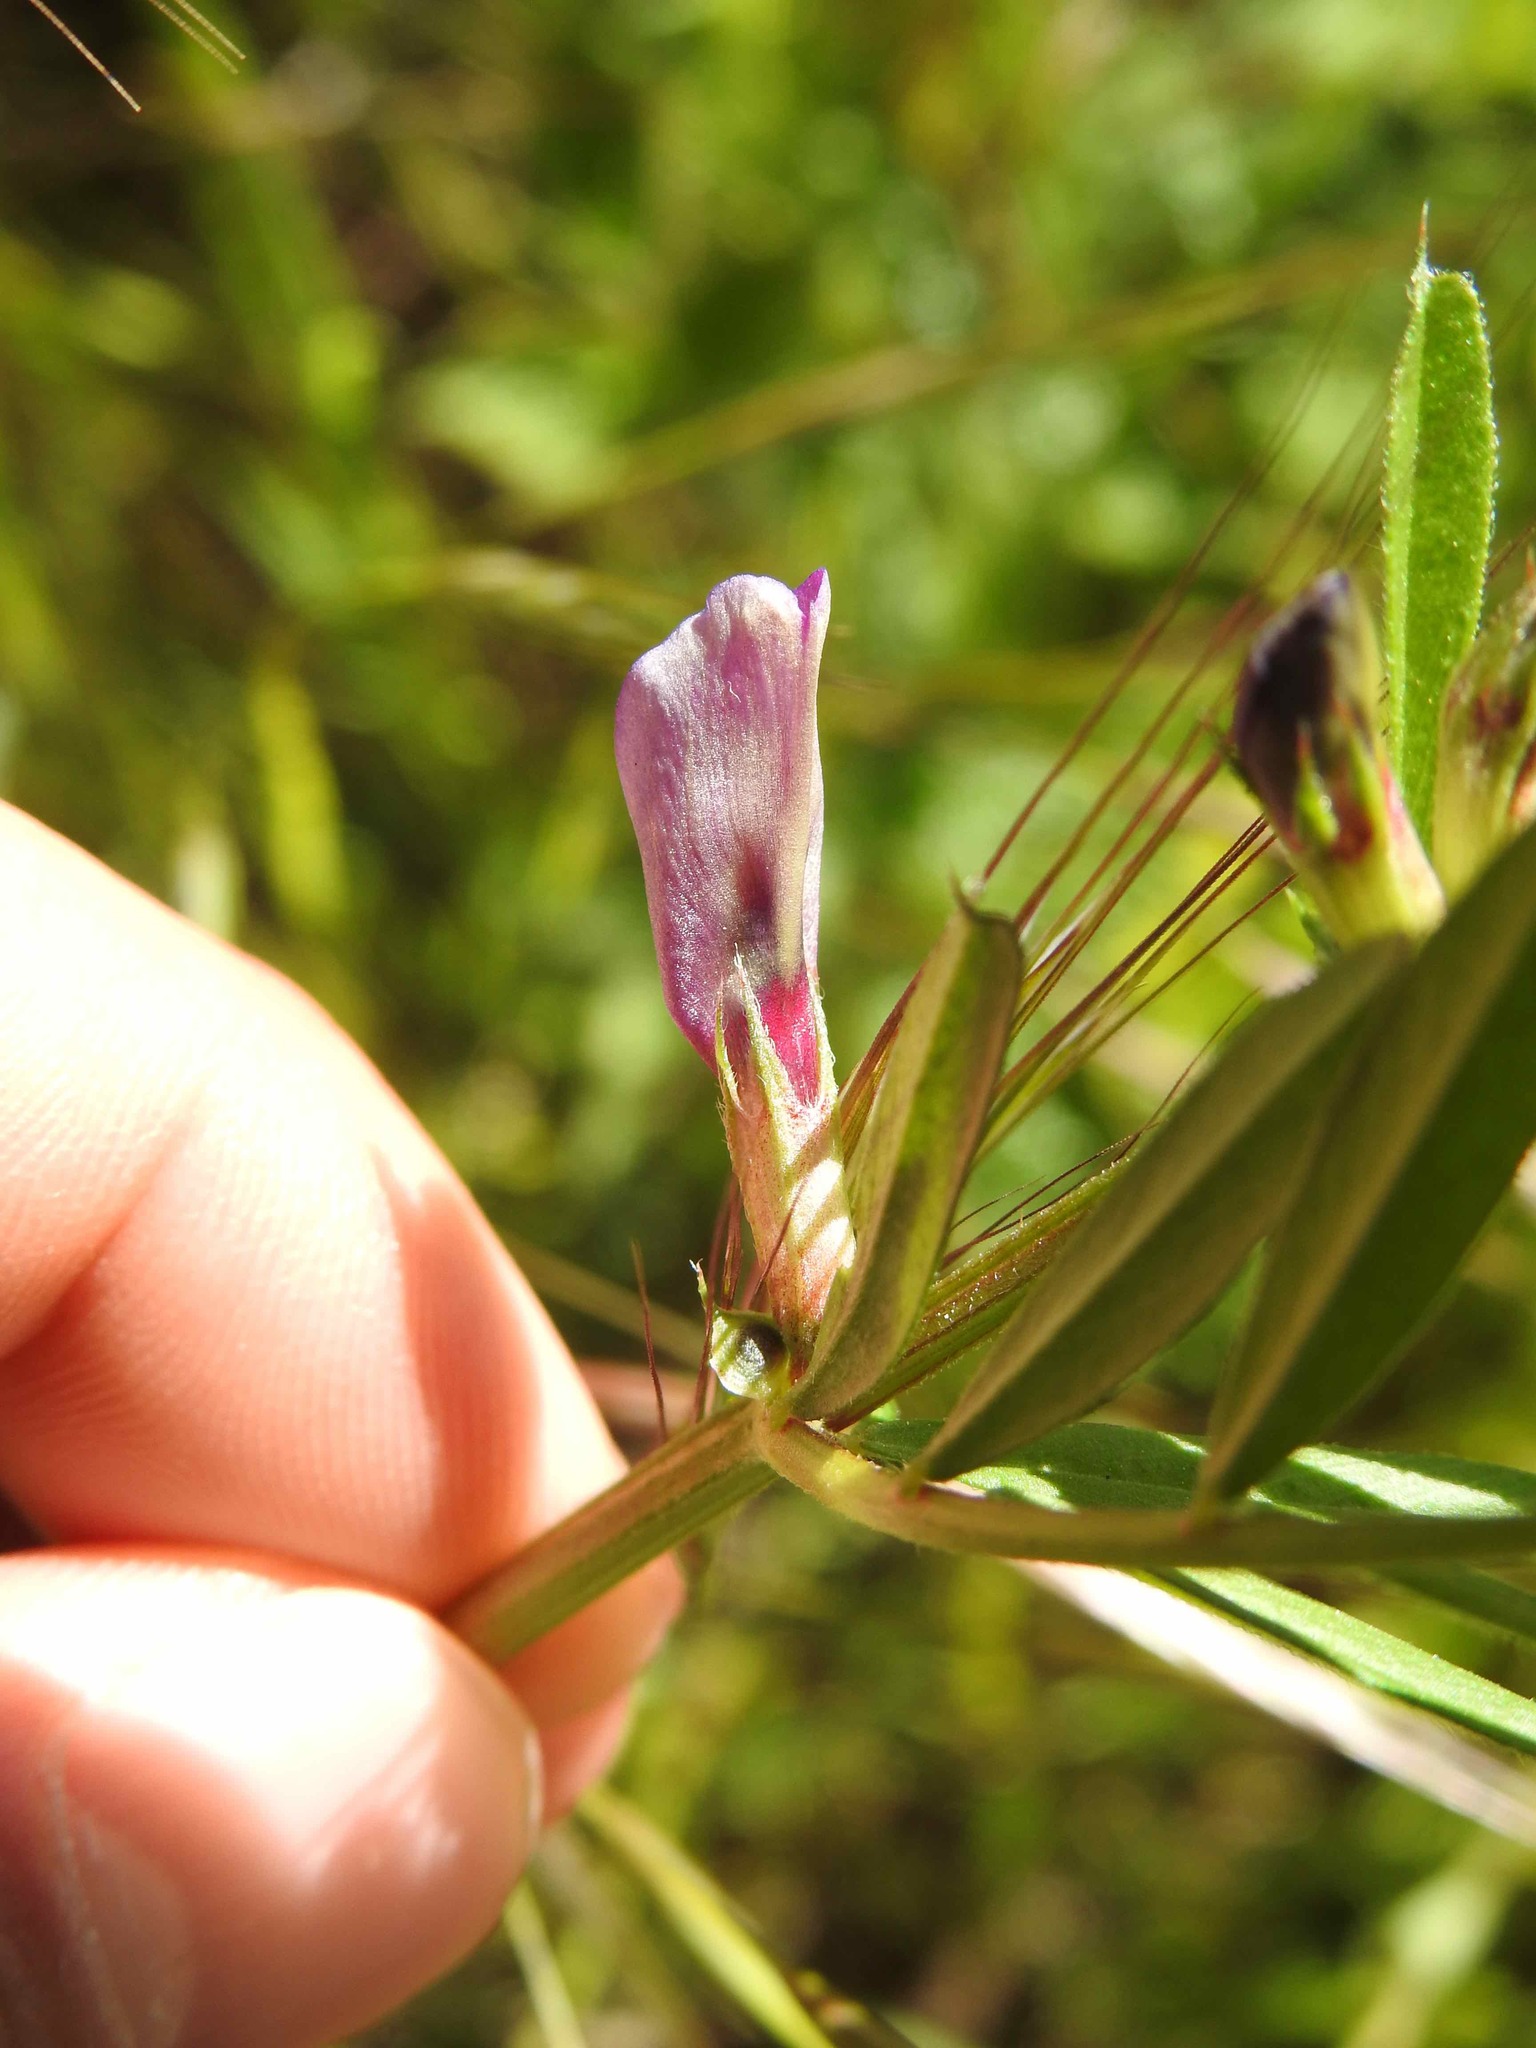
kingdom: Plantae
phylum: Tracheophyta
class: Magnoliopsida
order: Fabales
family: Fabaceae
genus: Vicia
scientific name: Vicia sativa
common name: Garden vetch
